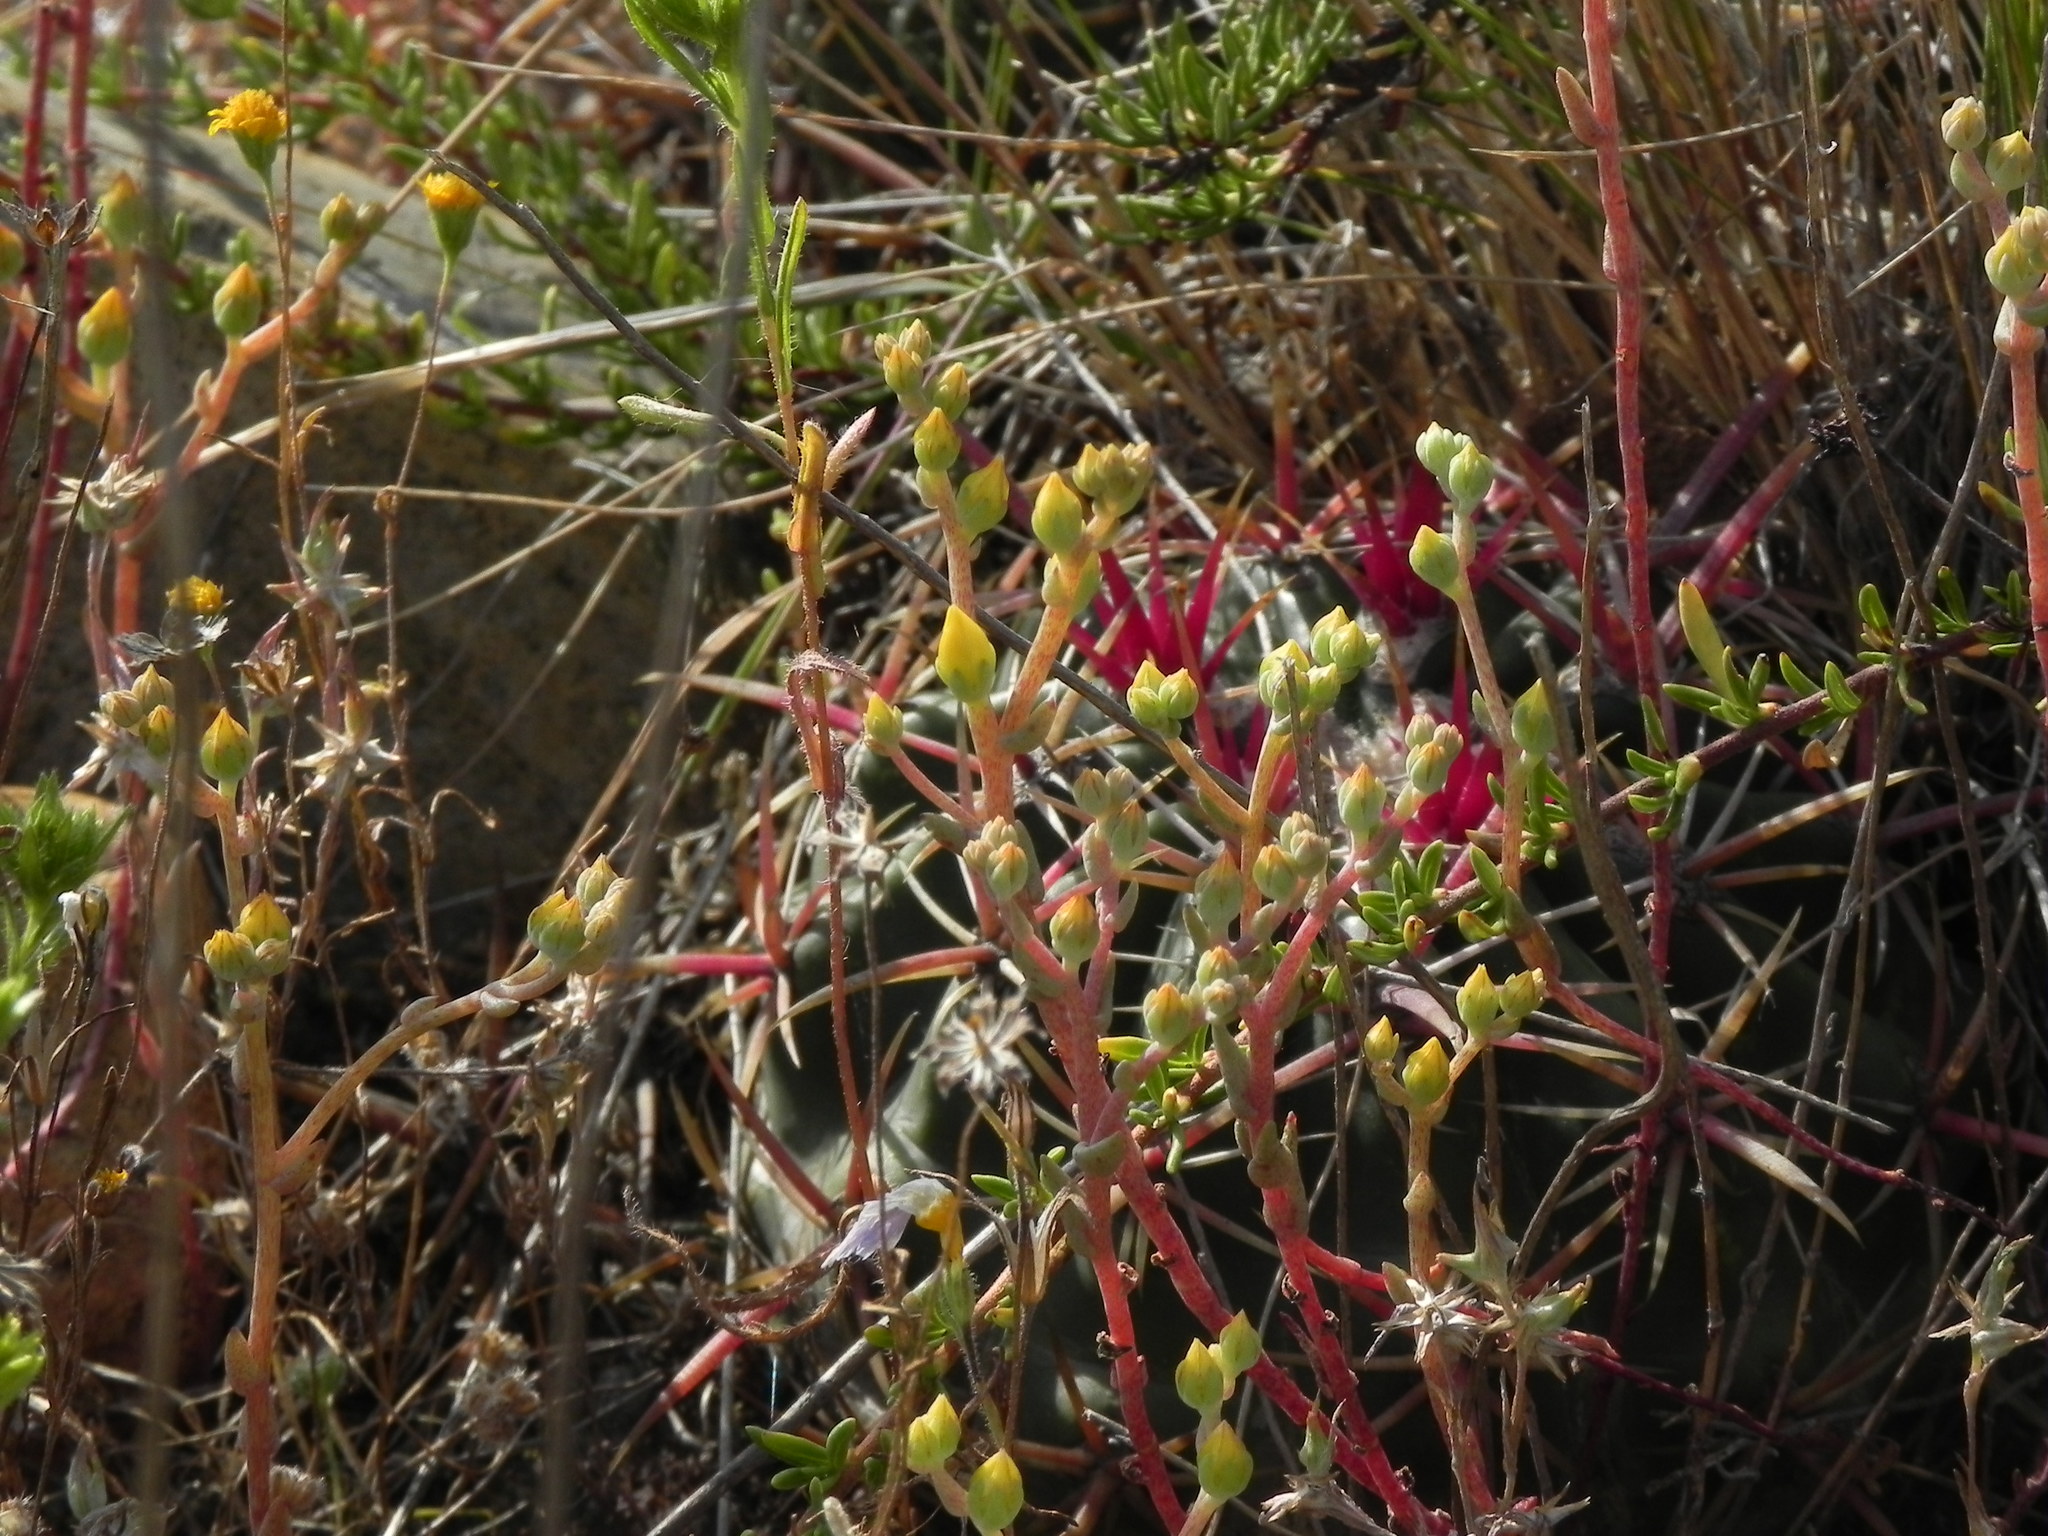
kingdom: Plantae
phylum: Tracheophyta
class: Magnoliopsida
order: Saxifragales
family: Crassulaceae
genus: Dudleya
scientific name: Dudleya variegata
